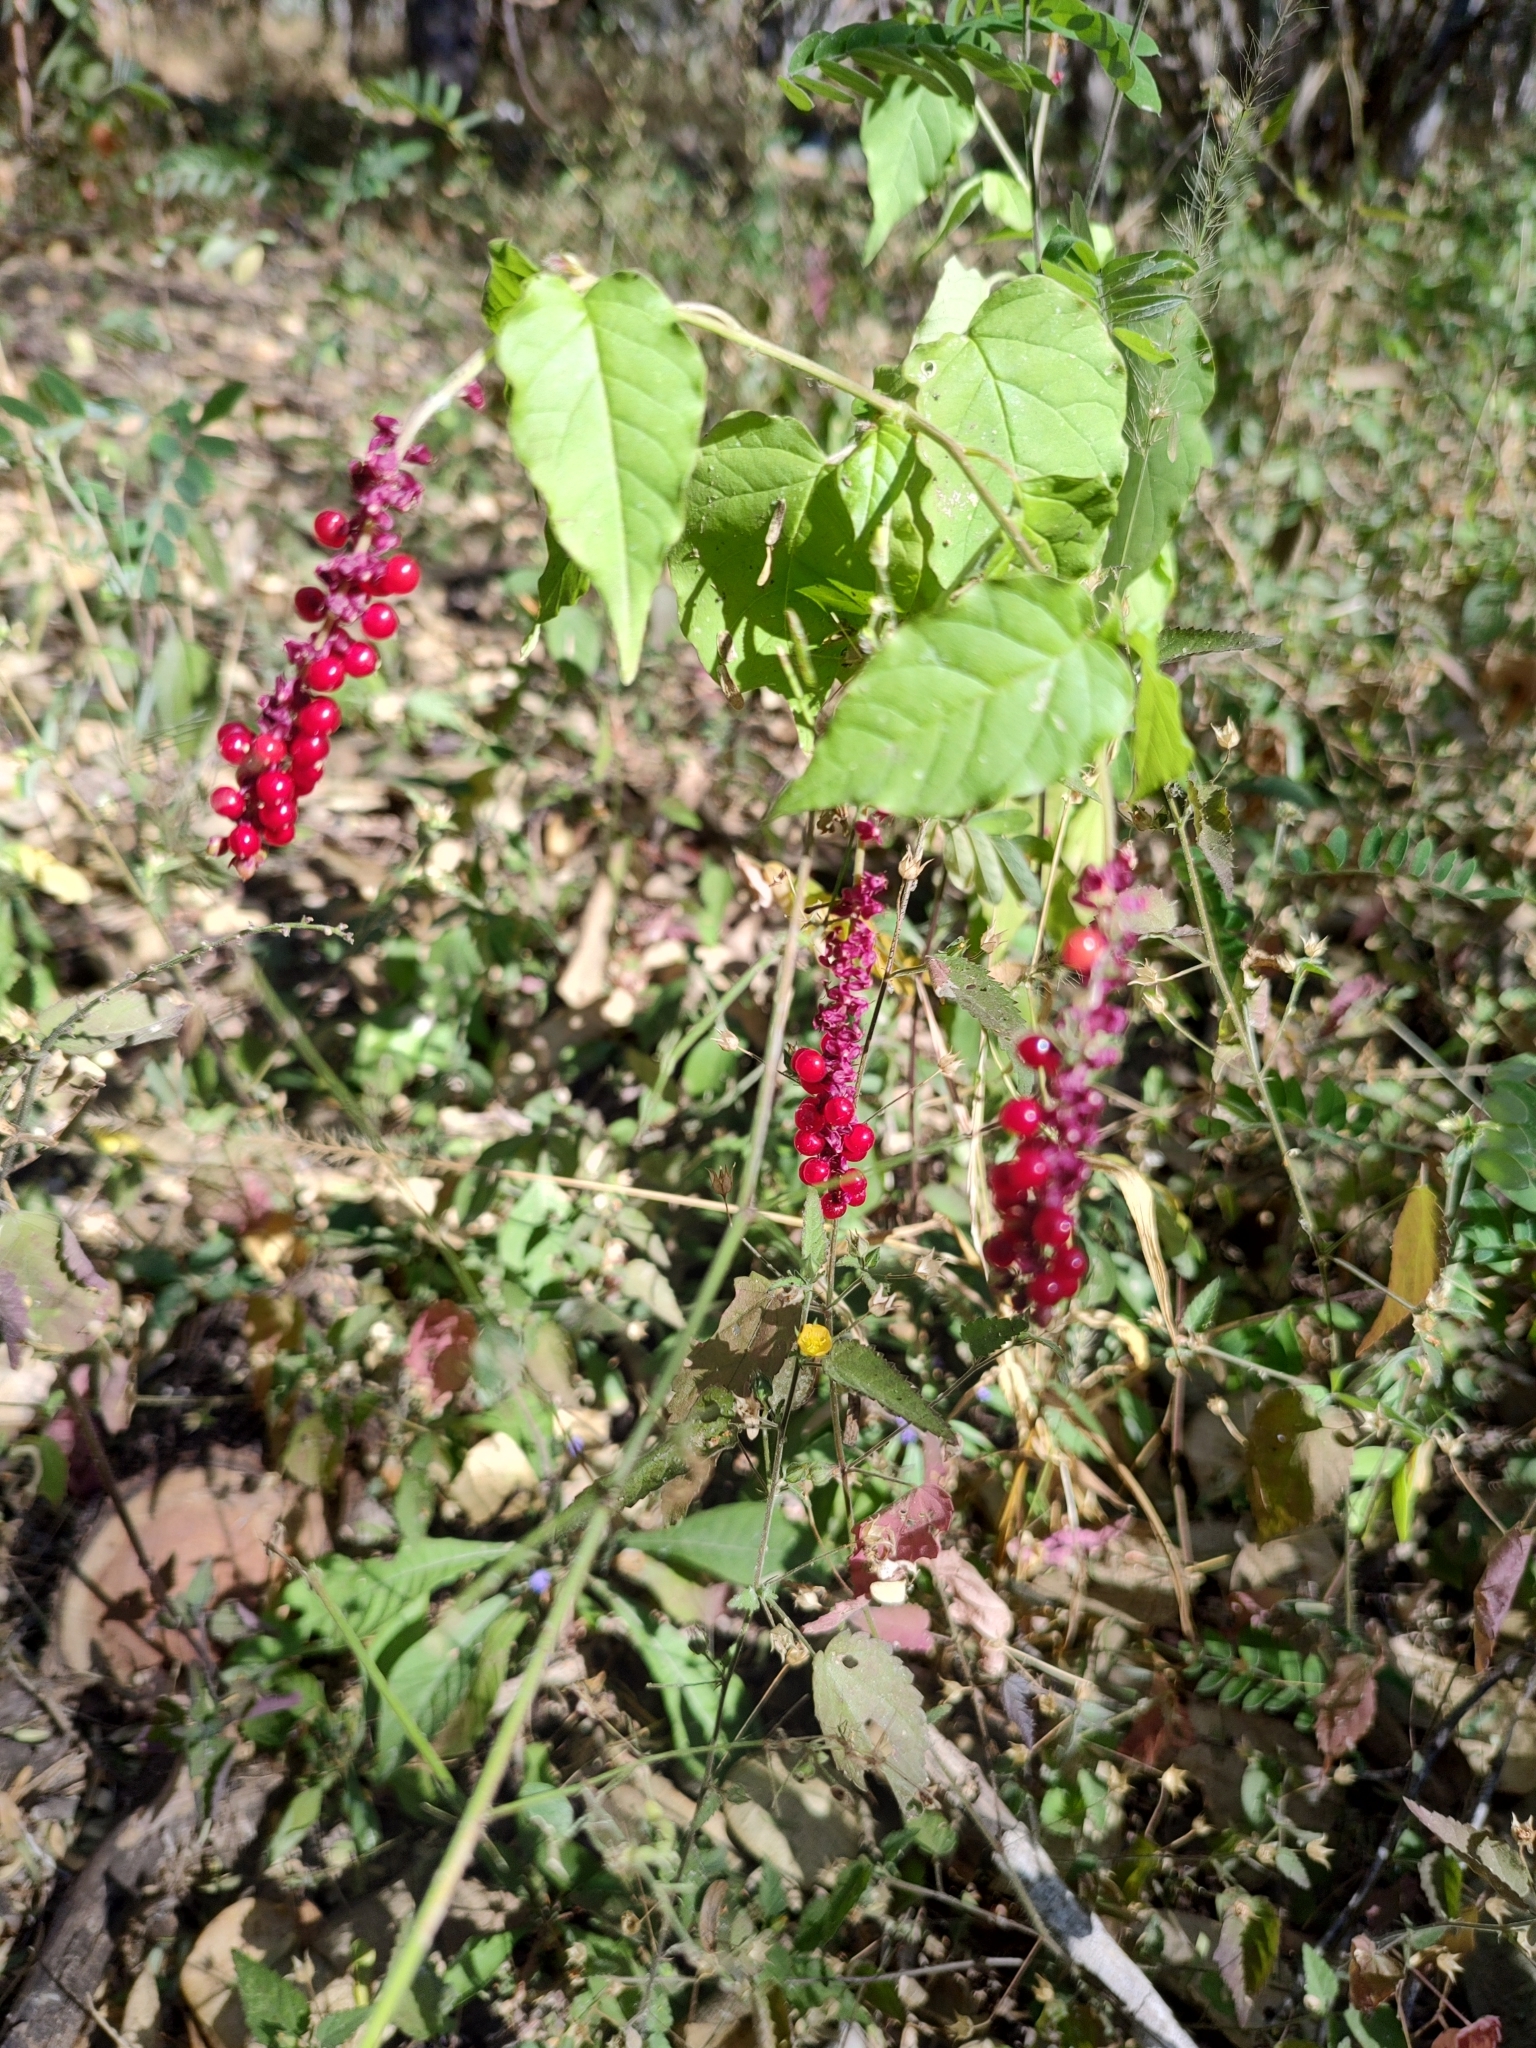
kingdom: Plantae
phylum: Tracheophyta
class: Magnoliopsida
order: Caryophyllales
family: Phytolaccaceae
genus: Rivina
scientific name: Rivina humilis
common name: Rougeplant
